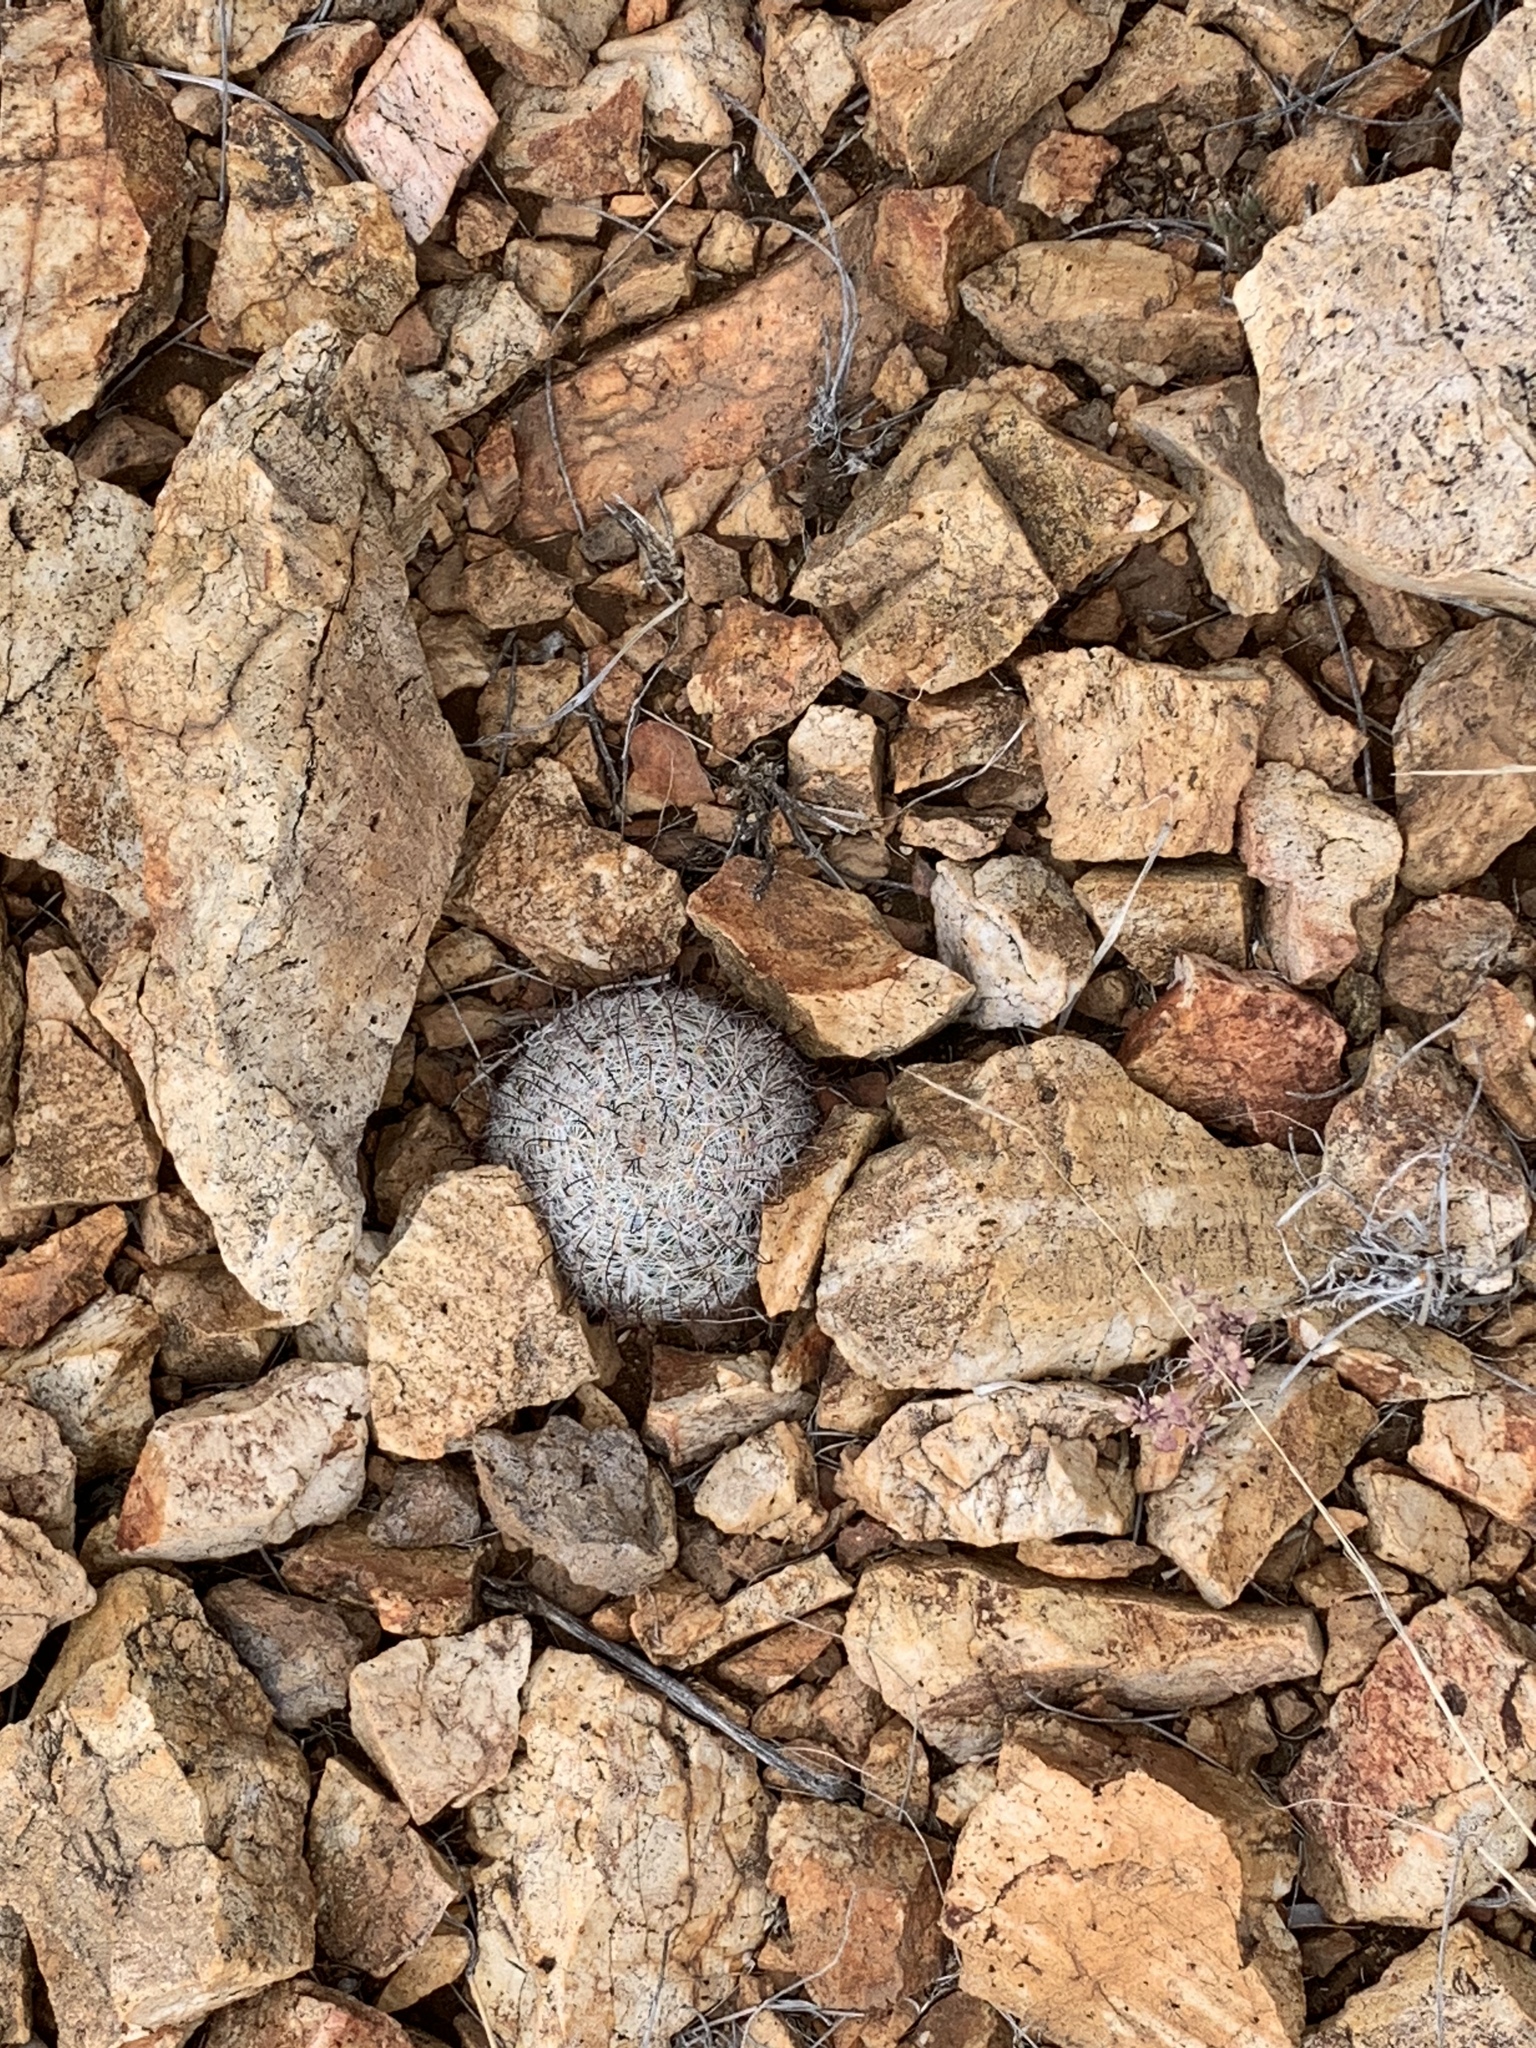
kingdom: Plantae
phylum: Tracheophyta
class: Magnoliopsida
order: Caryophyllales
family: Cactaceae
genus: Cochemiea
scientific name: Cochemiea grahamii
